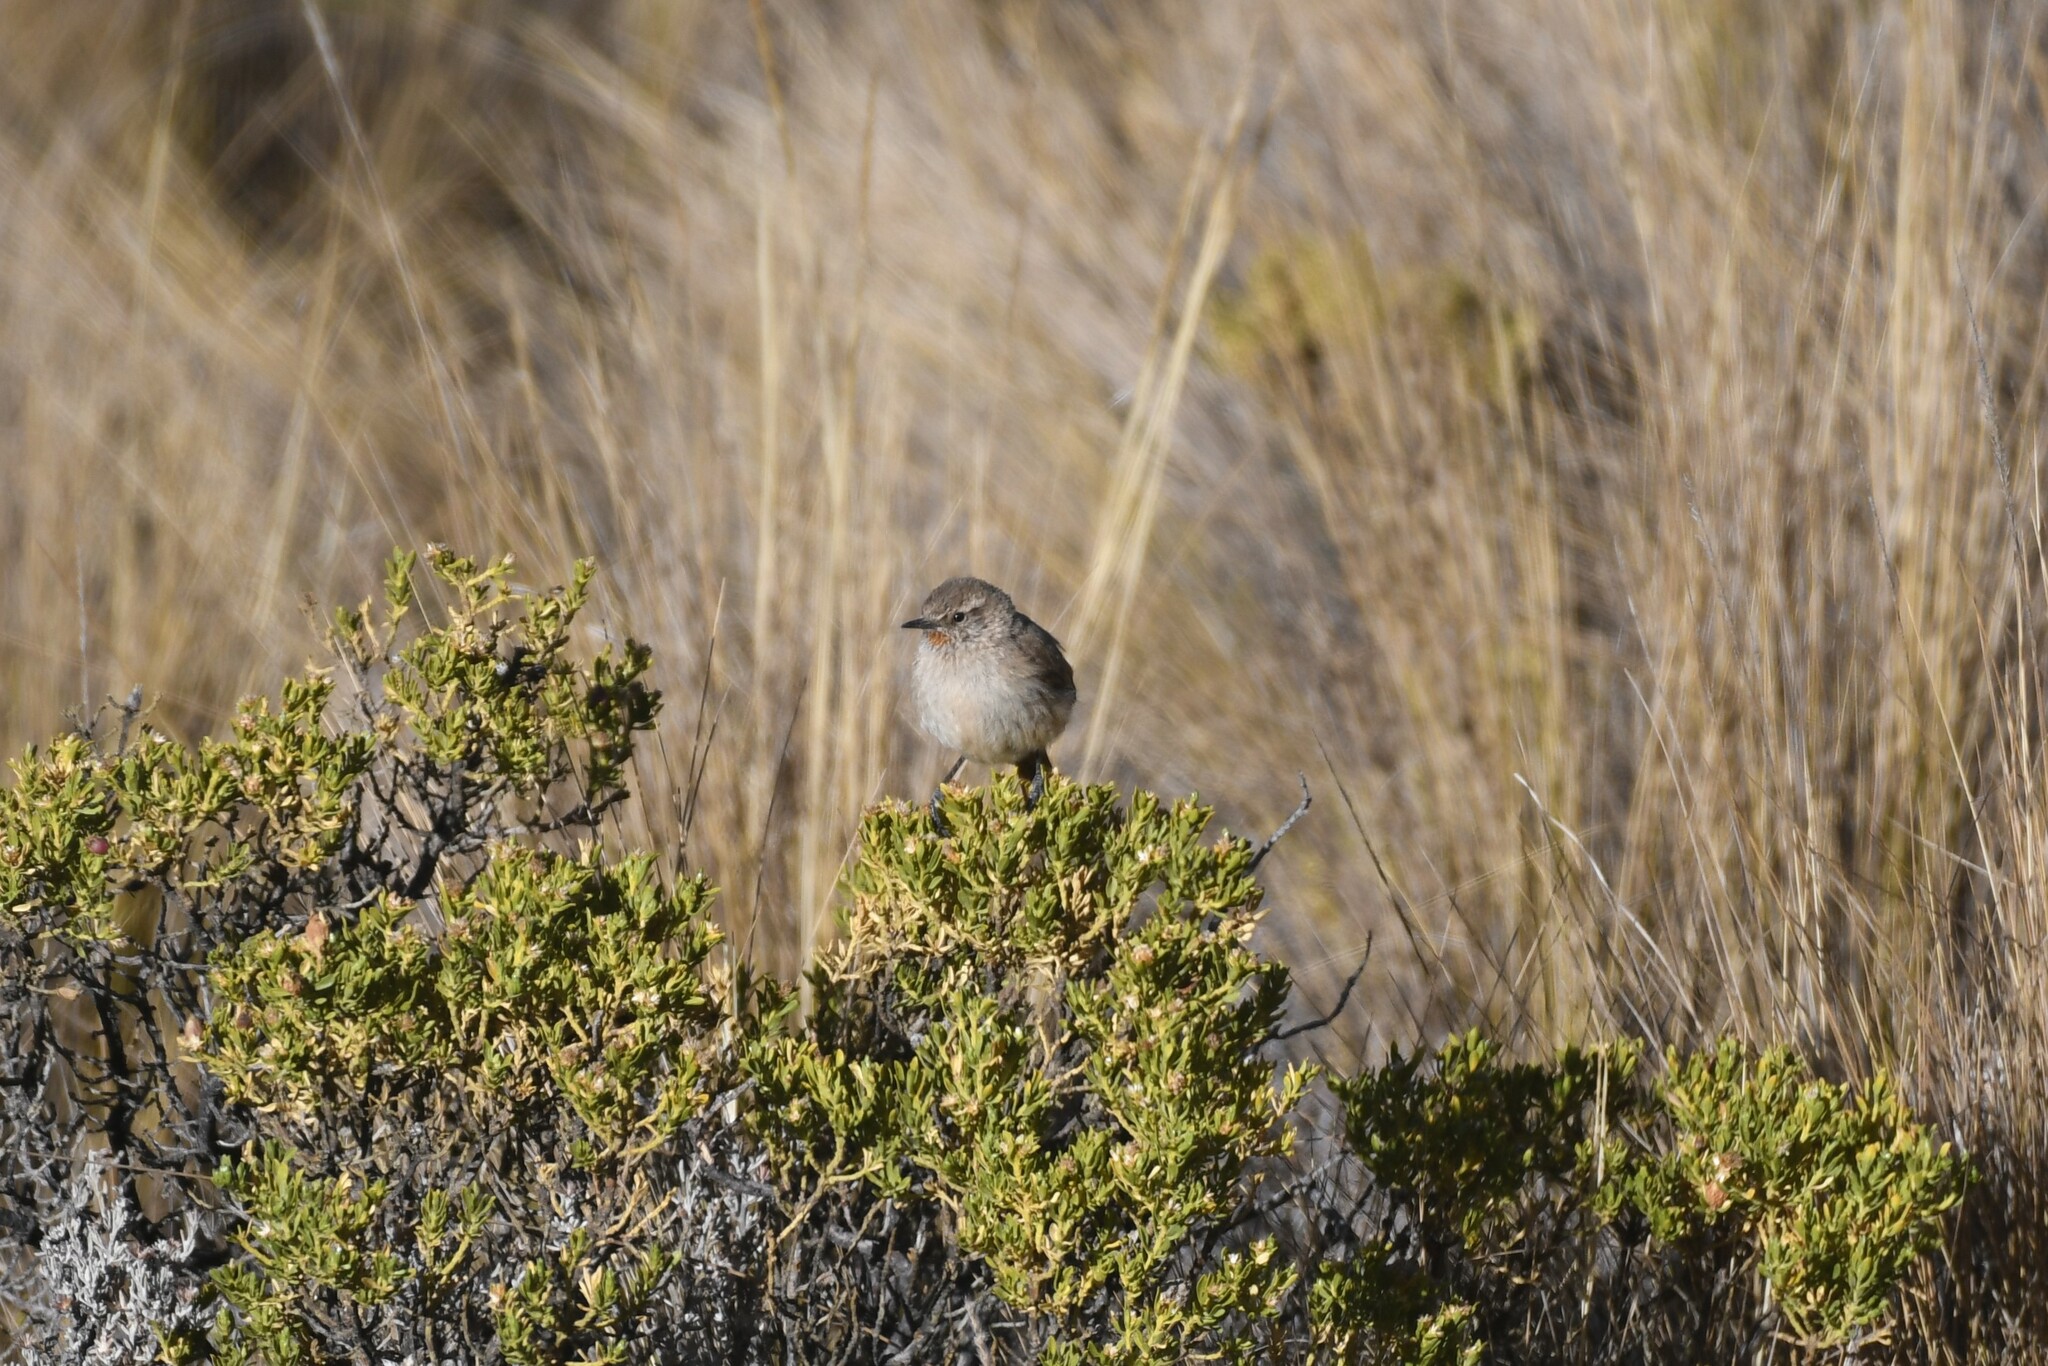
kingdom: Animalia
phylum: Chordata
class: Aves
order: Passeriformes
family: Furnariidae
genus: Asthenes
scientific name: Asthenes modesta
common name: Cordilleran canastero
